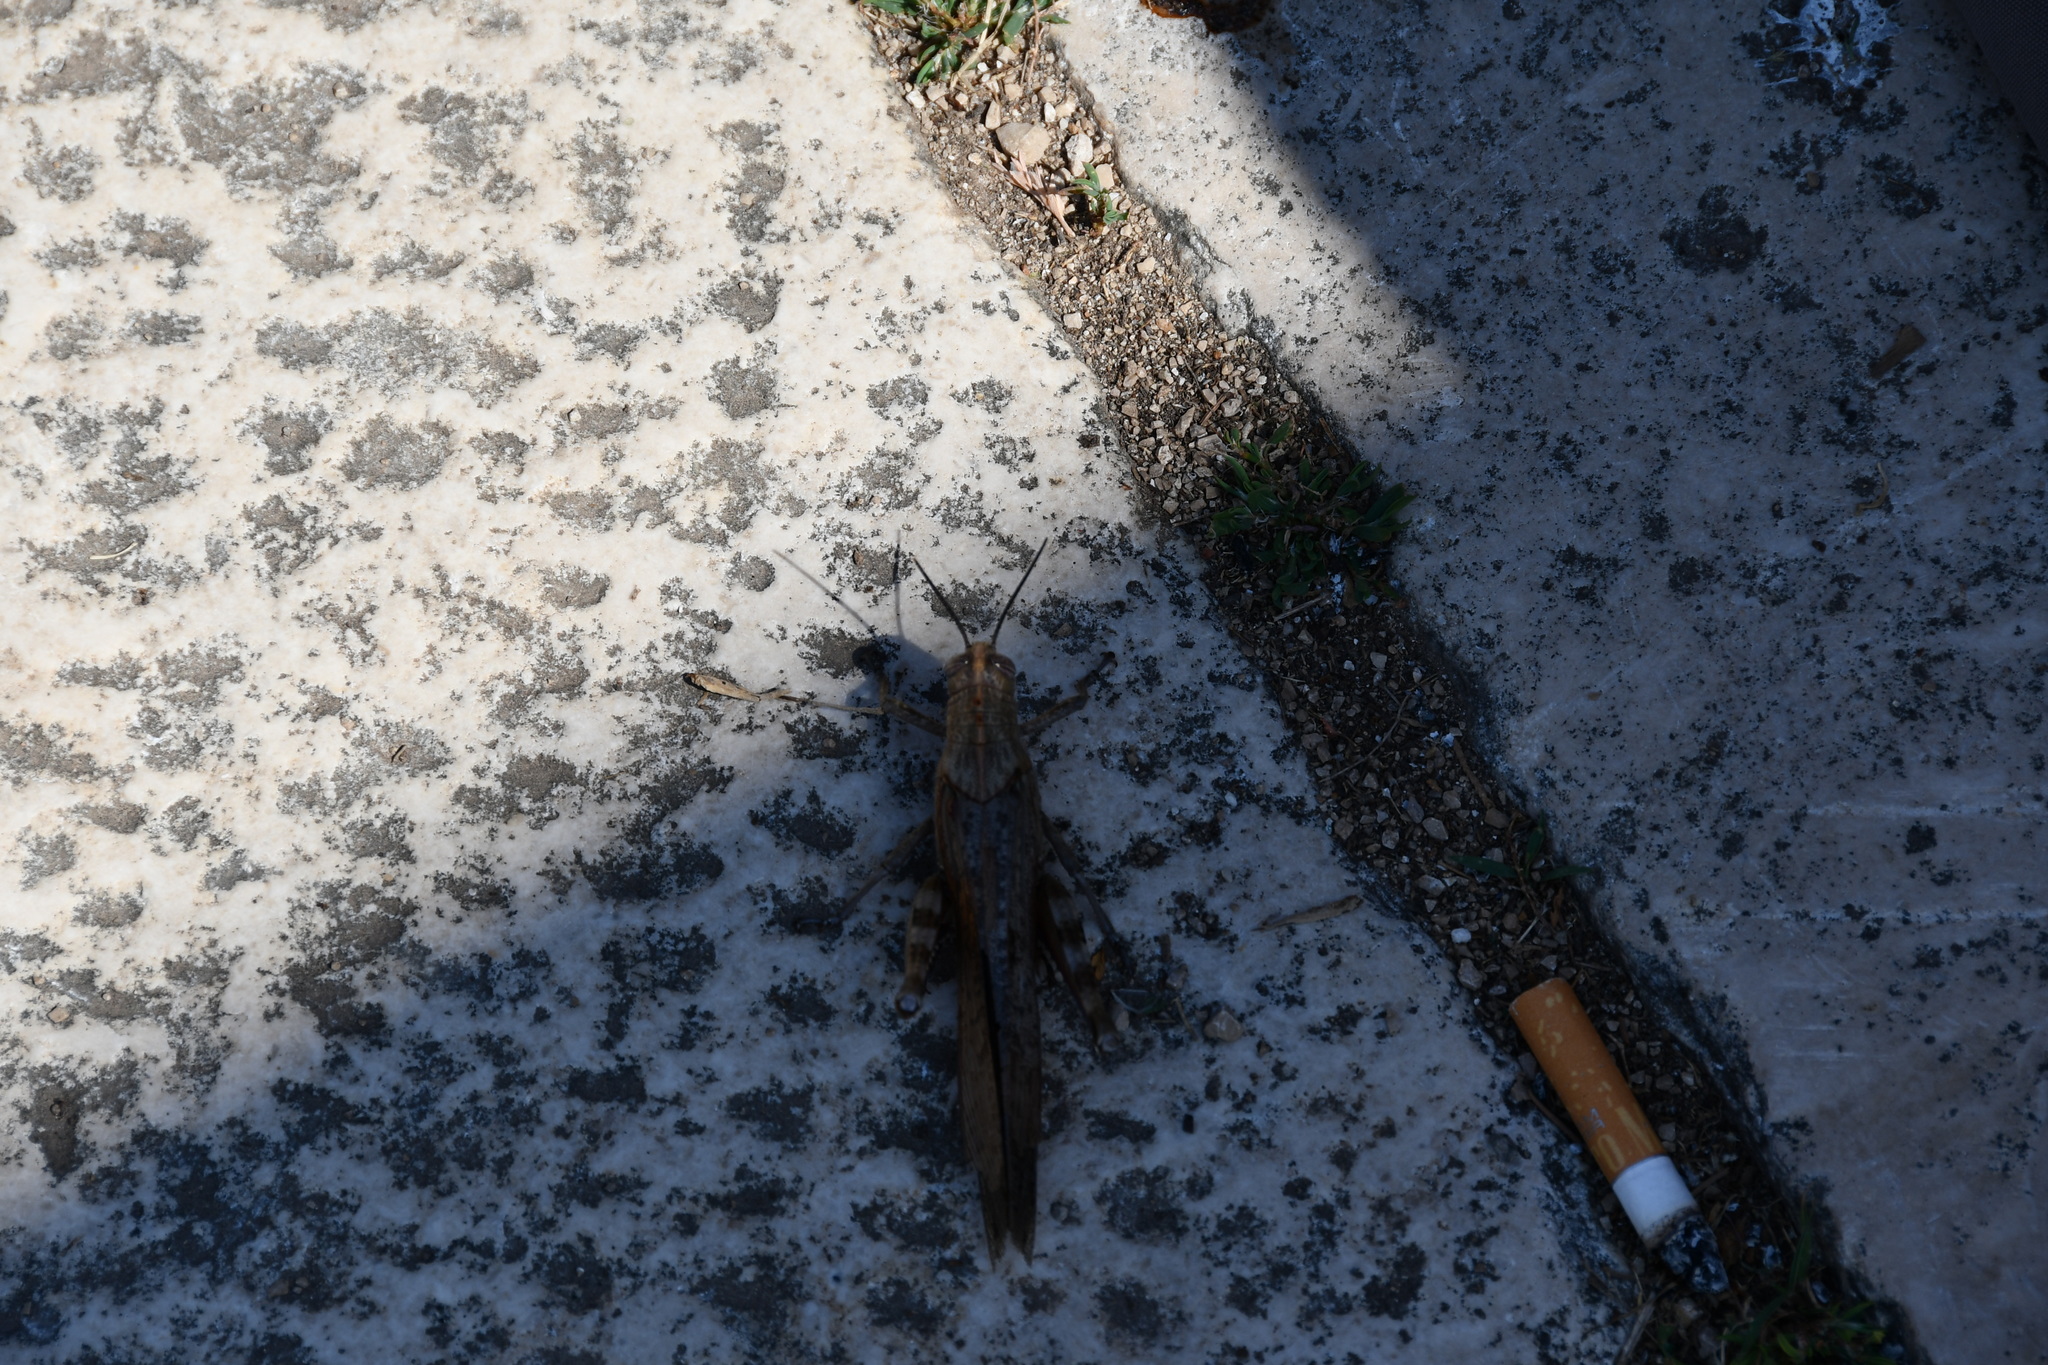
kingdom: Animalia
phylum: Arthropoda
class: Insecta
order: Orthoptera
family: Acrididae
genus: Anacridium
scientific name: Anacridium aegyptium
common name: Egyptian grasshopper
